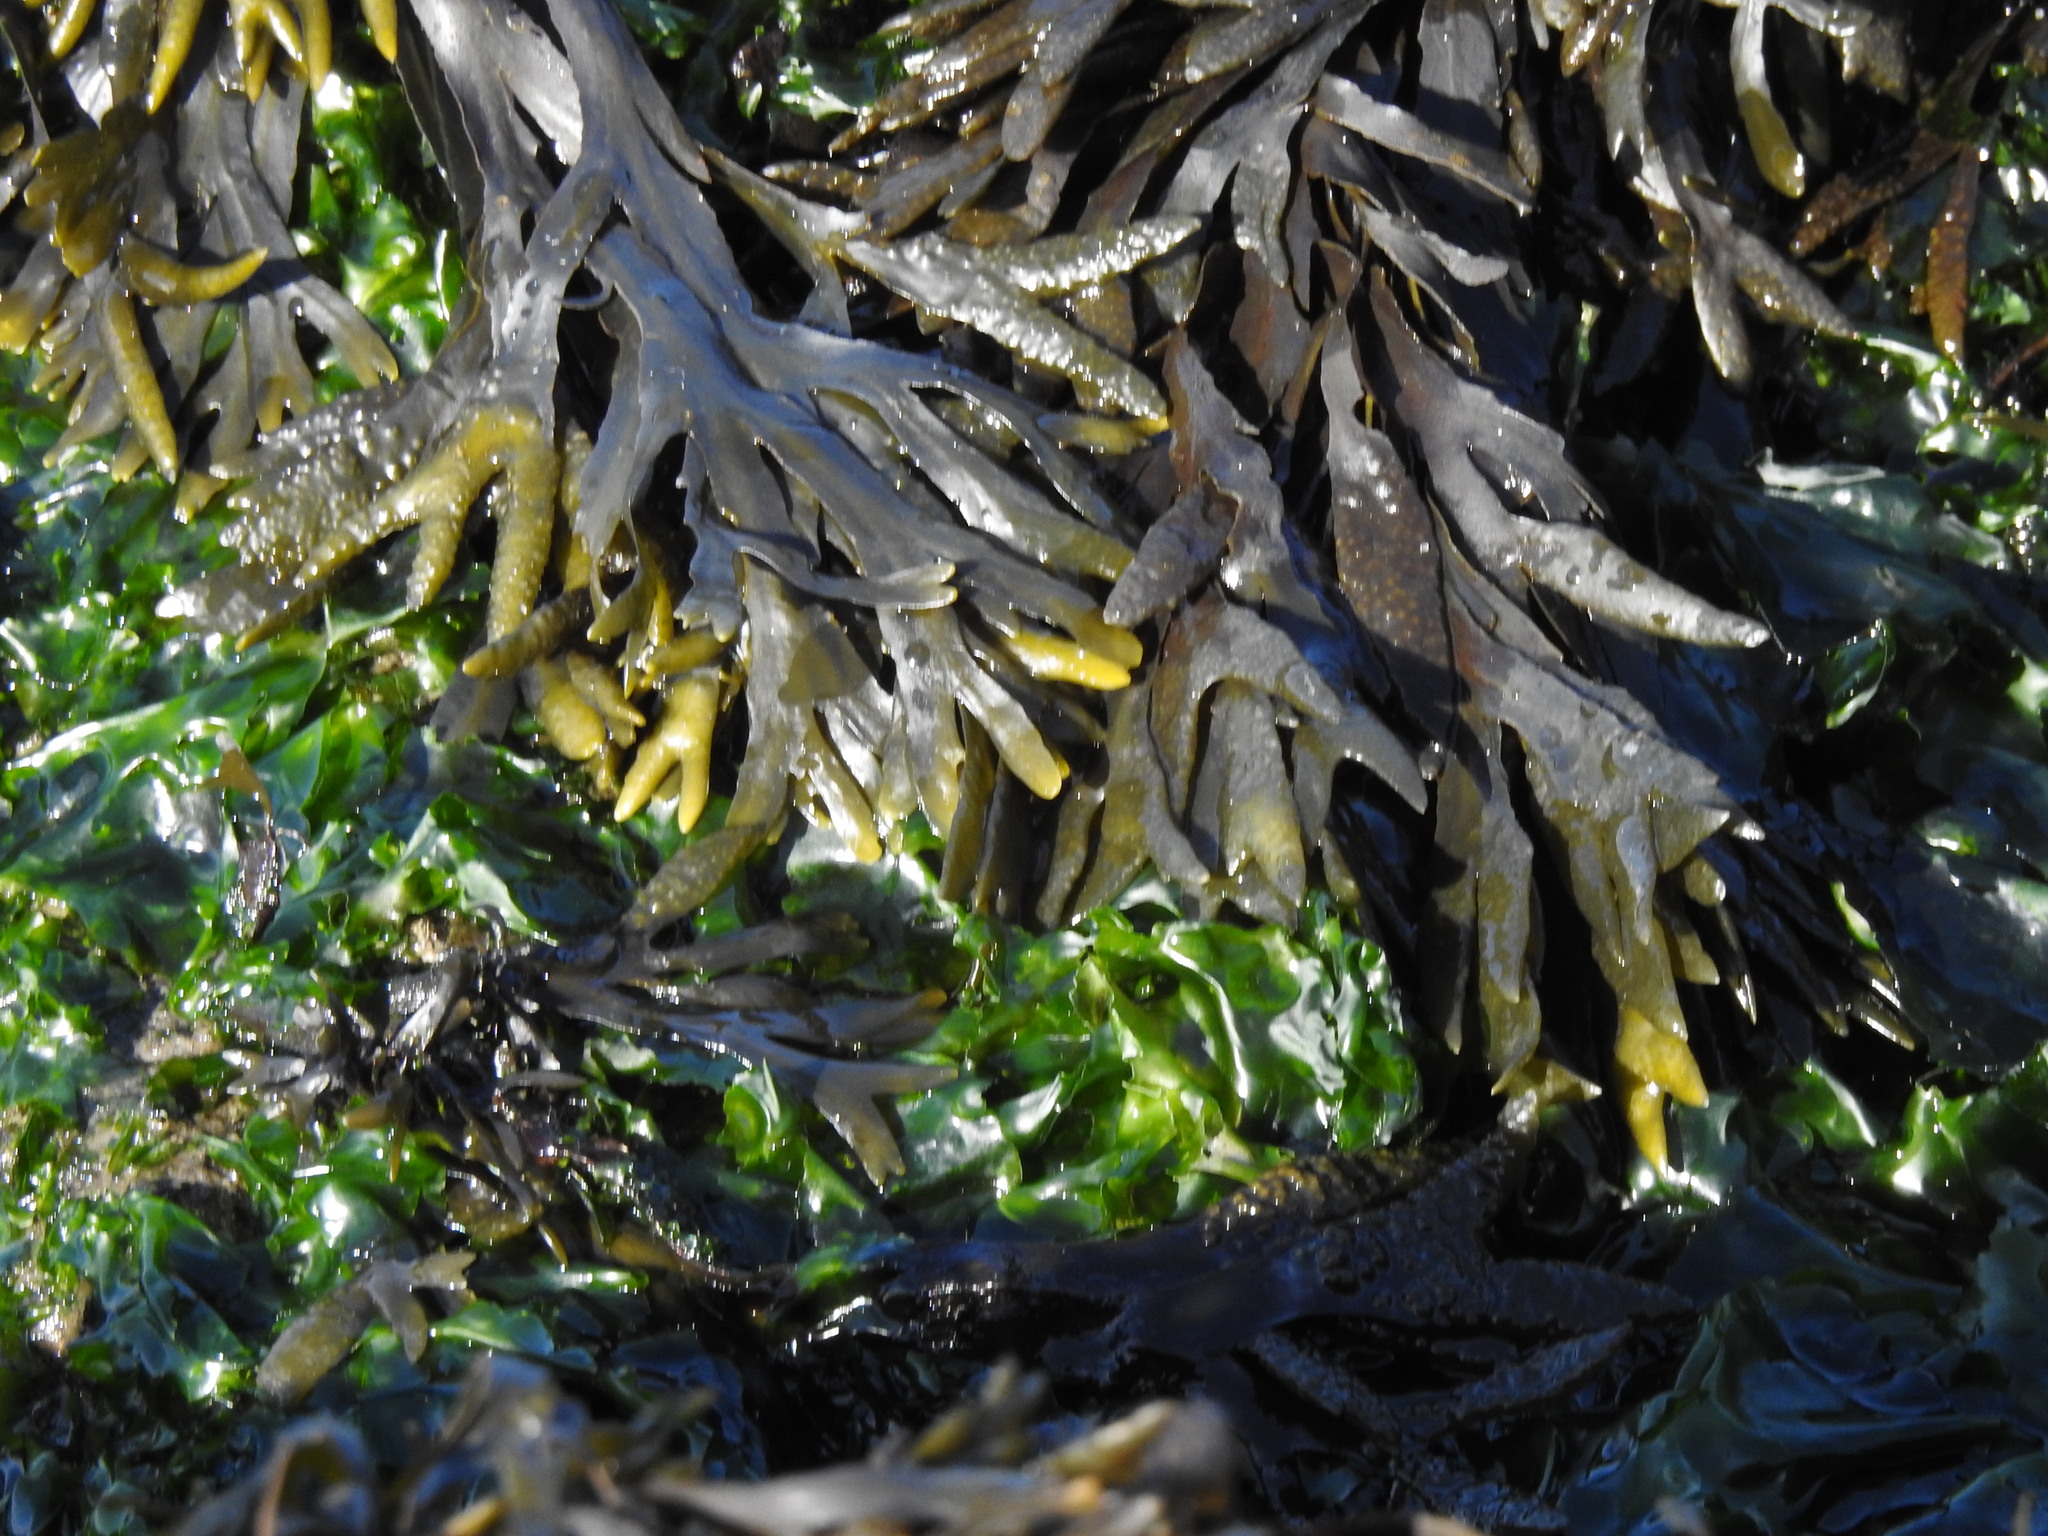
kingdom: Chromista
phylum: Ochrophyta
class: Phaeophyceae
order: Fucales
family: Fucaceae
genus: Fucus
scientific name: Fucus distichus
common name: Rockweed
